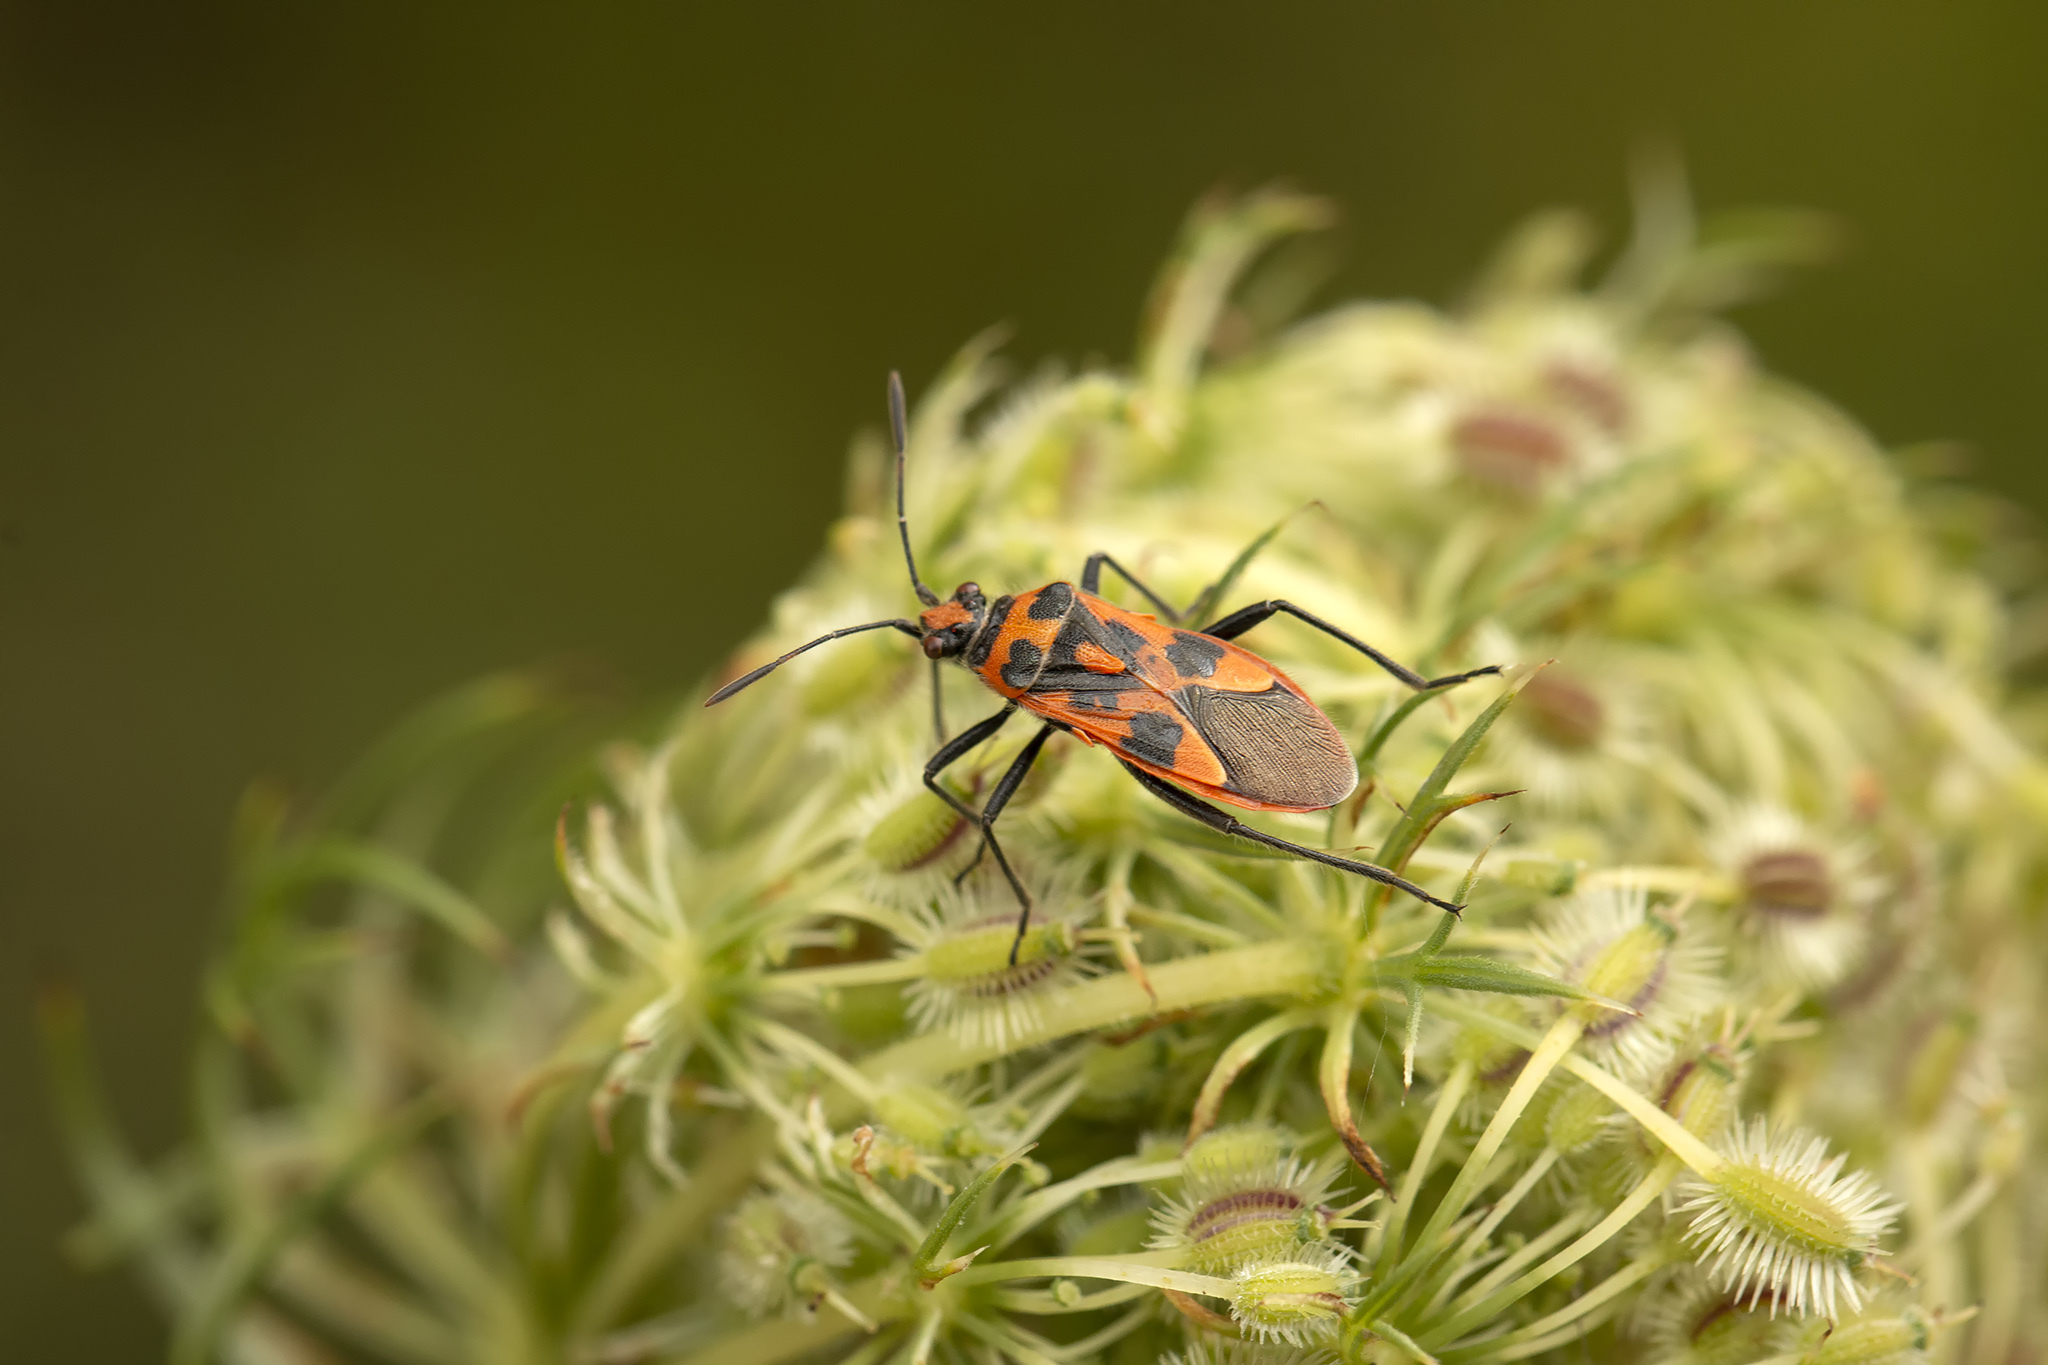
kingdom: Animalia
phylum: Arthropoda
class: Insecta
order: Hemiptera
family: Rhopalidae
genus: Corizus
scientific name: Corizus hyoscyami
